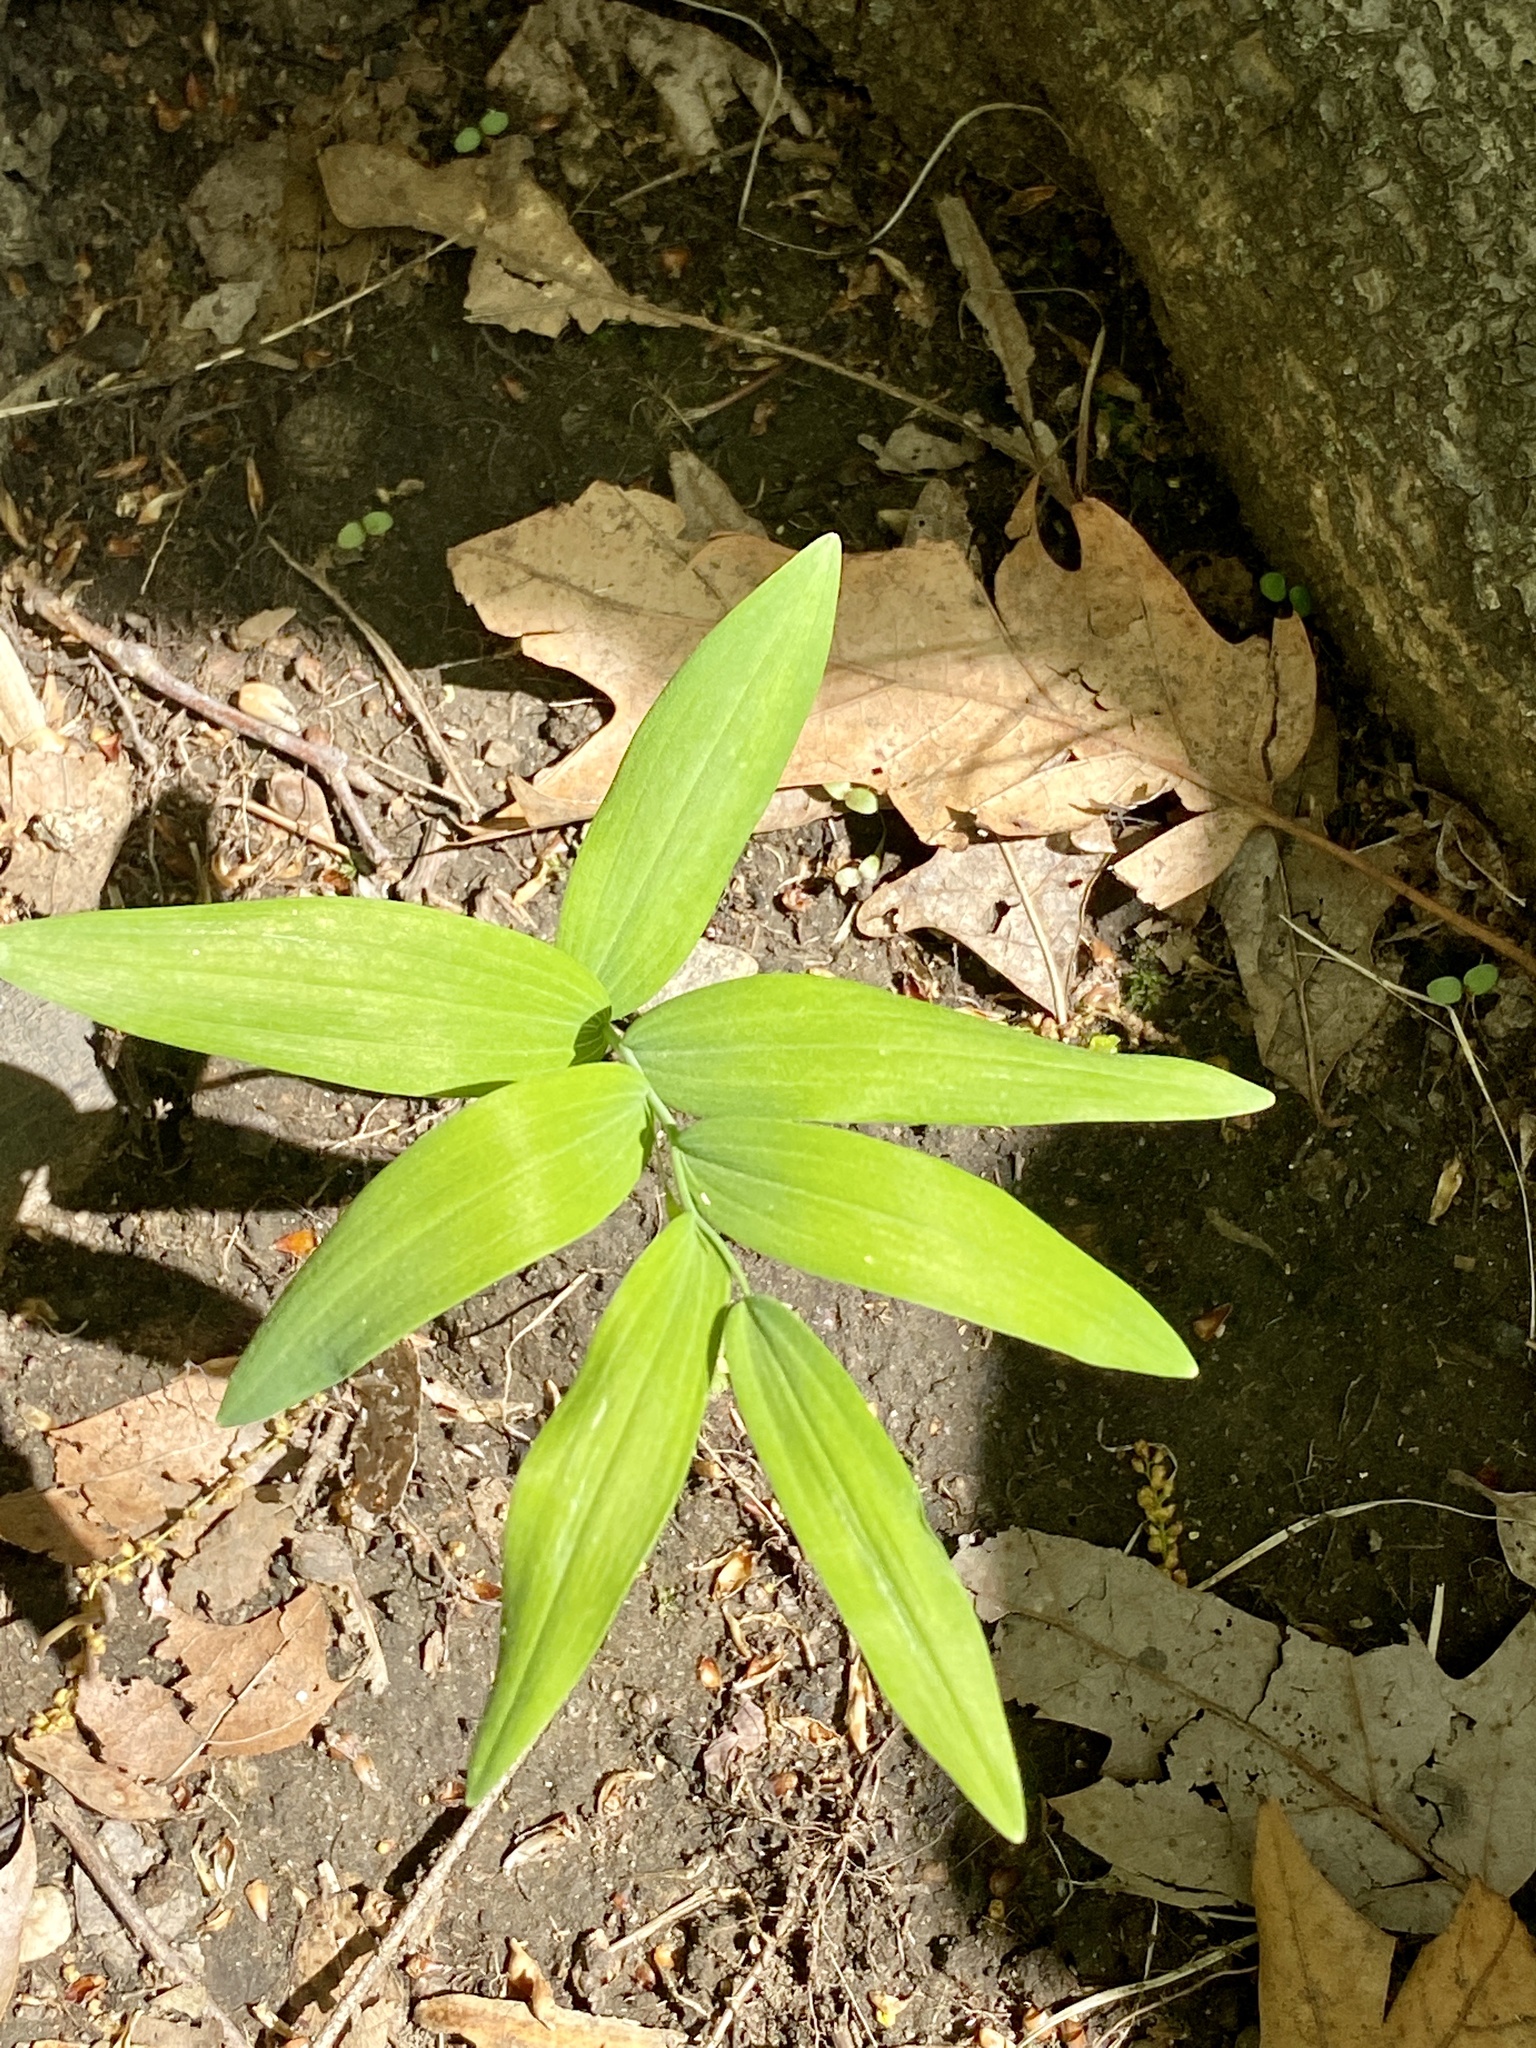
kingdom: Plantae
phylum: Tracheophyta
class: Liliopsida
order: Asparagales
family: Asparagaceae
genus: Polygonatum
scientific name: Polygonatum biflorum
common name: American solomon's-seal
